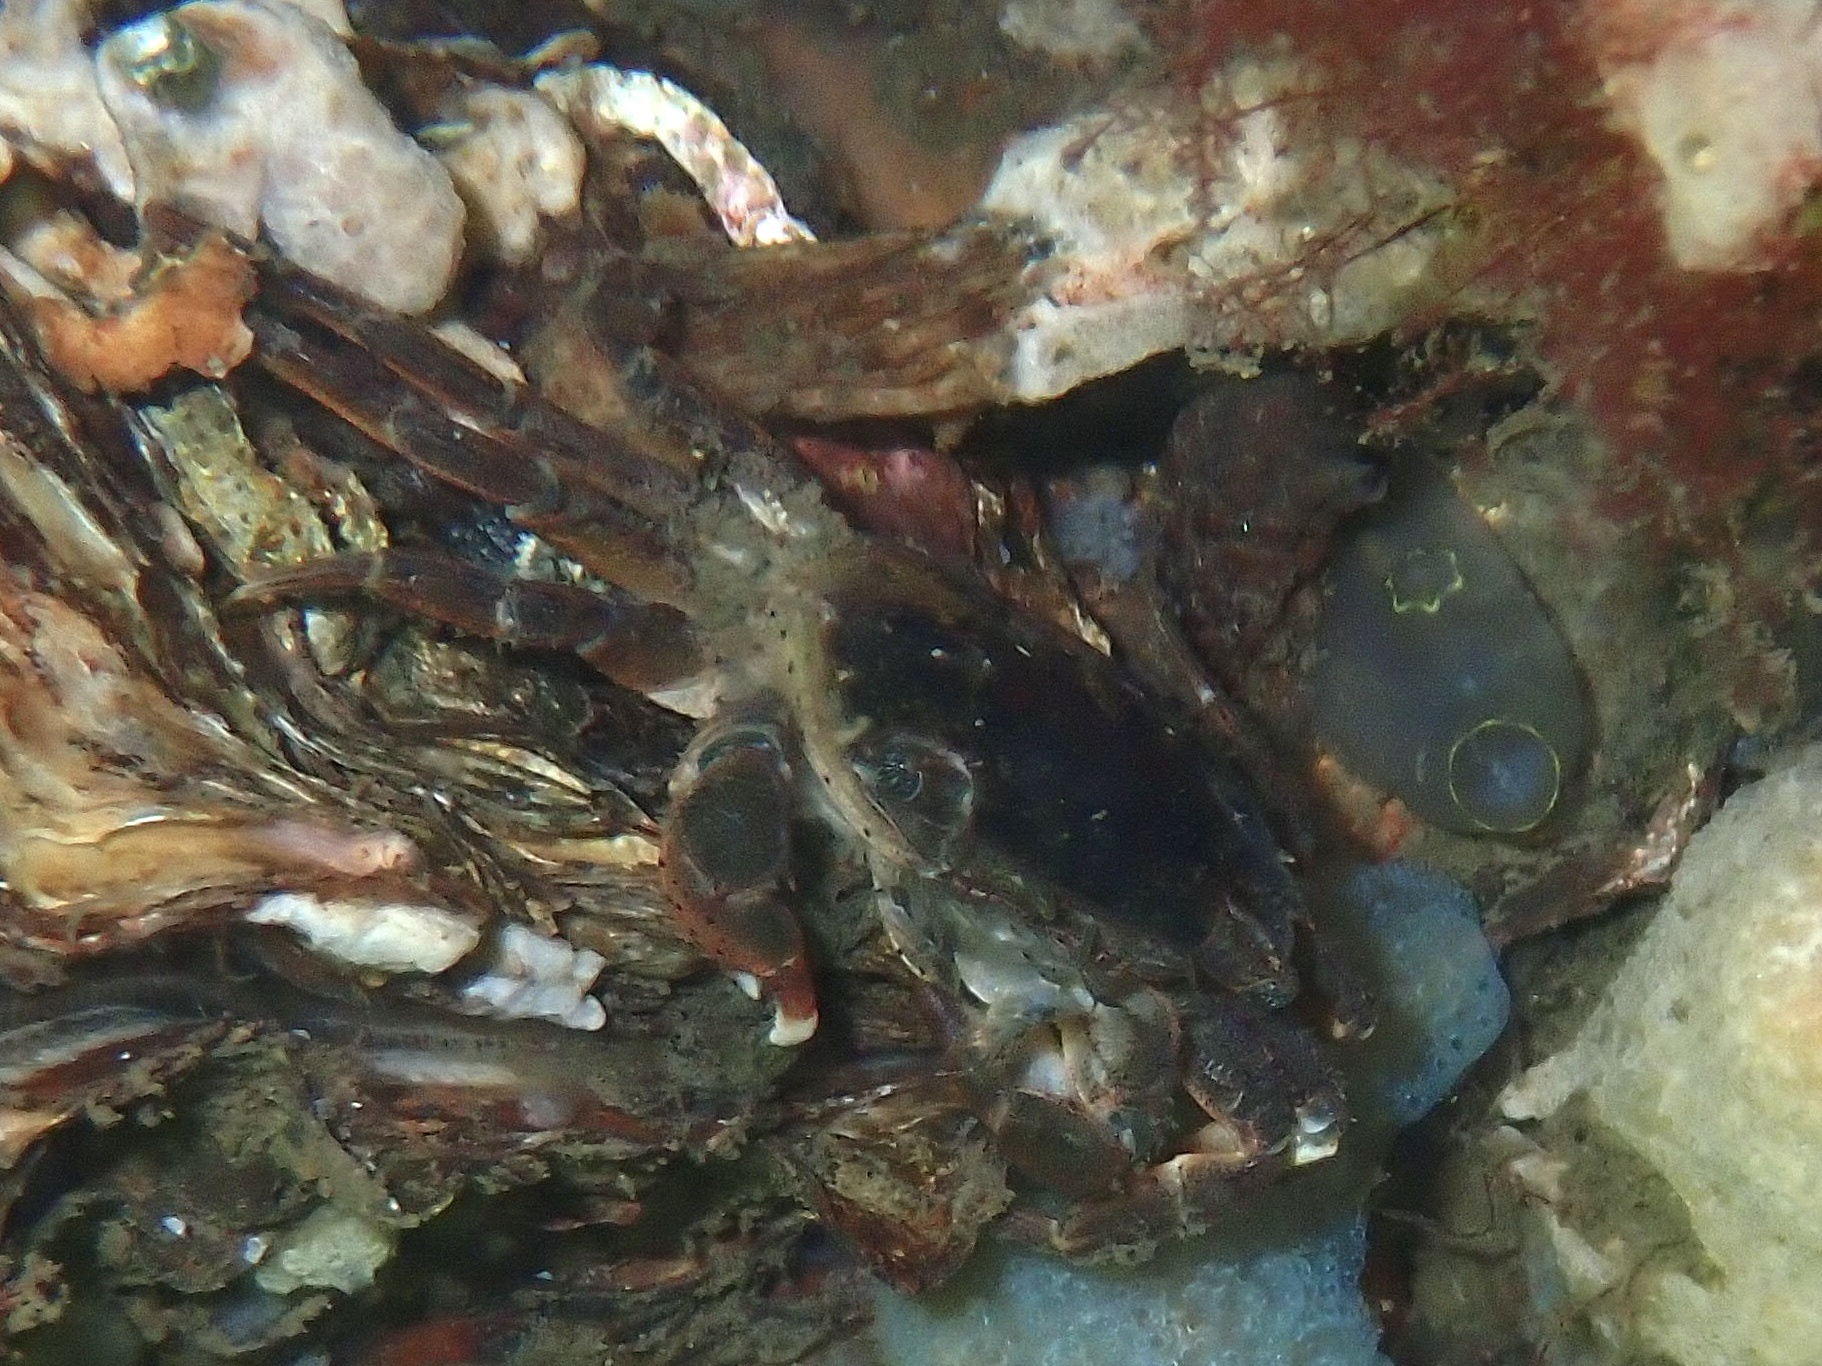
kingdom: Animalia
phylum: Arthropoda
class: Malacostraca
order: Decapoda
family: Varunidae
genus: Hemigrapsus
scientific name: Hemigrapsus takanoi
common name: Asian brush crab
